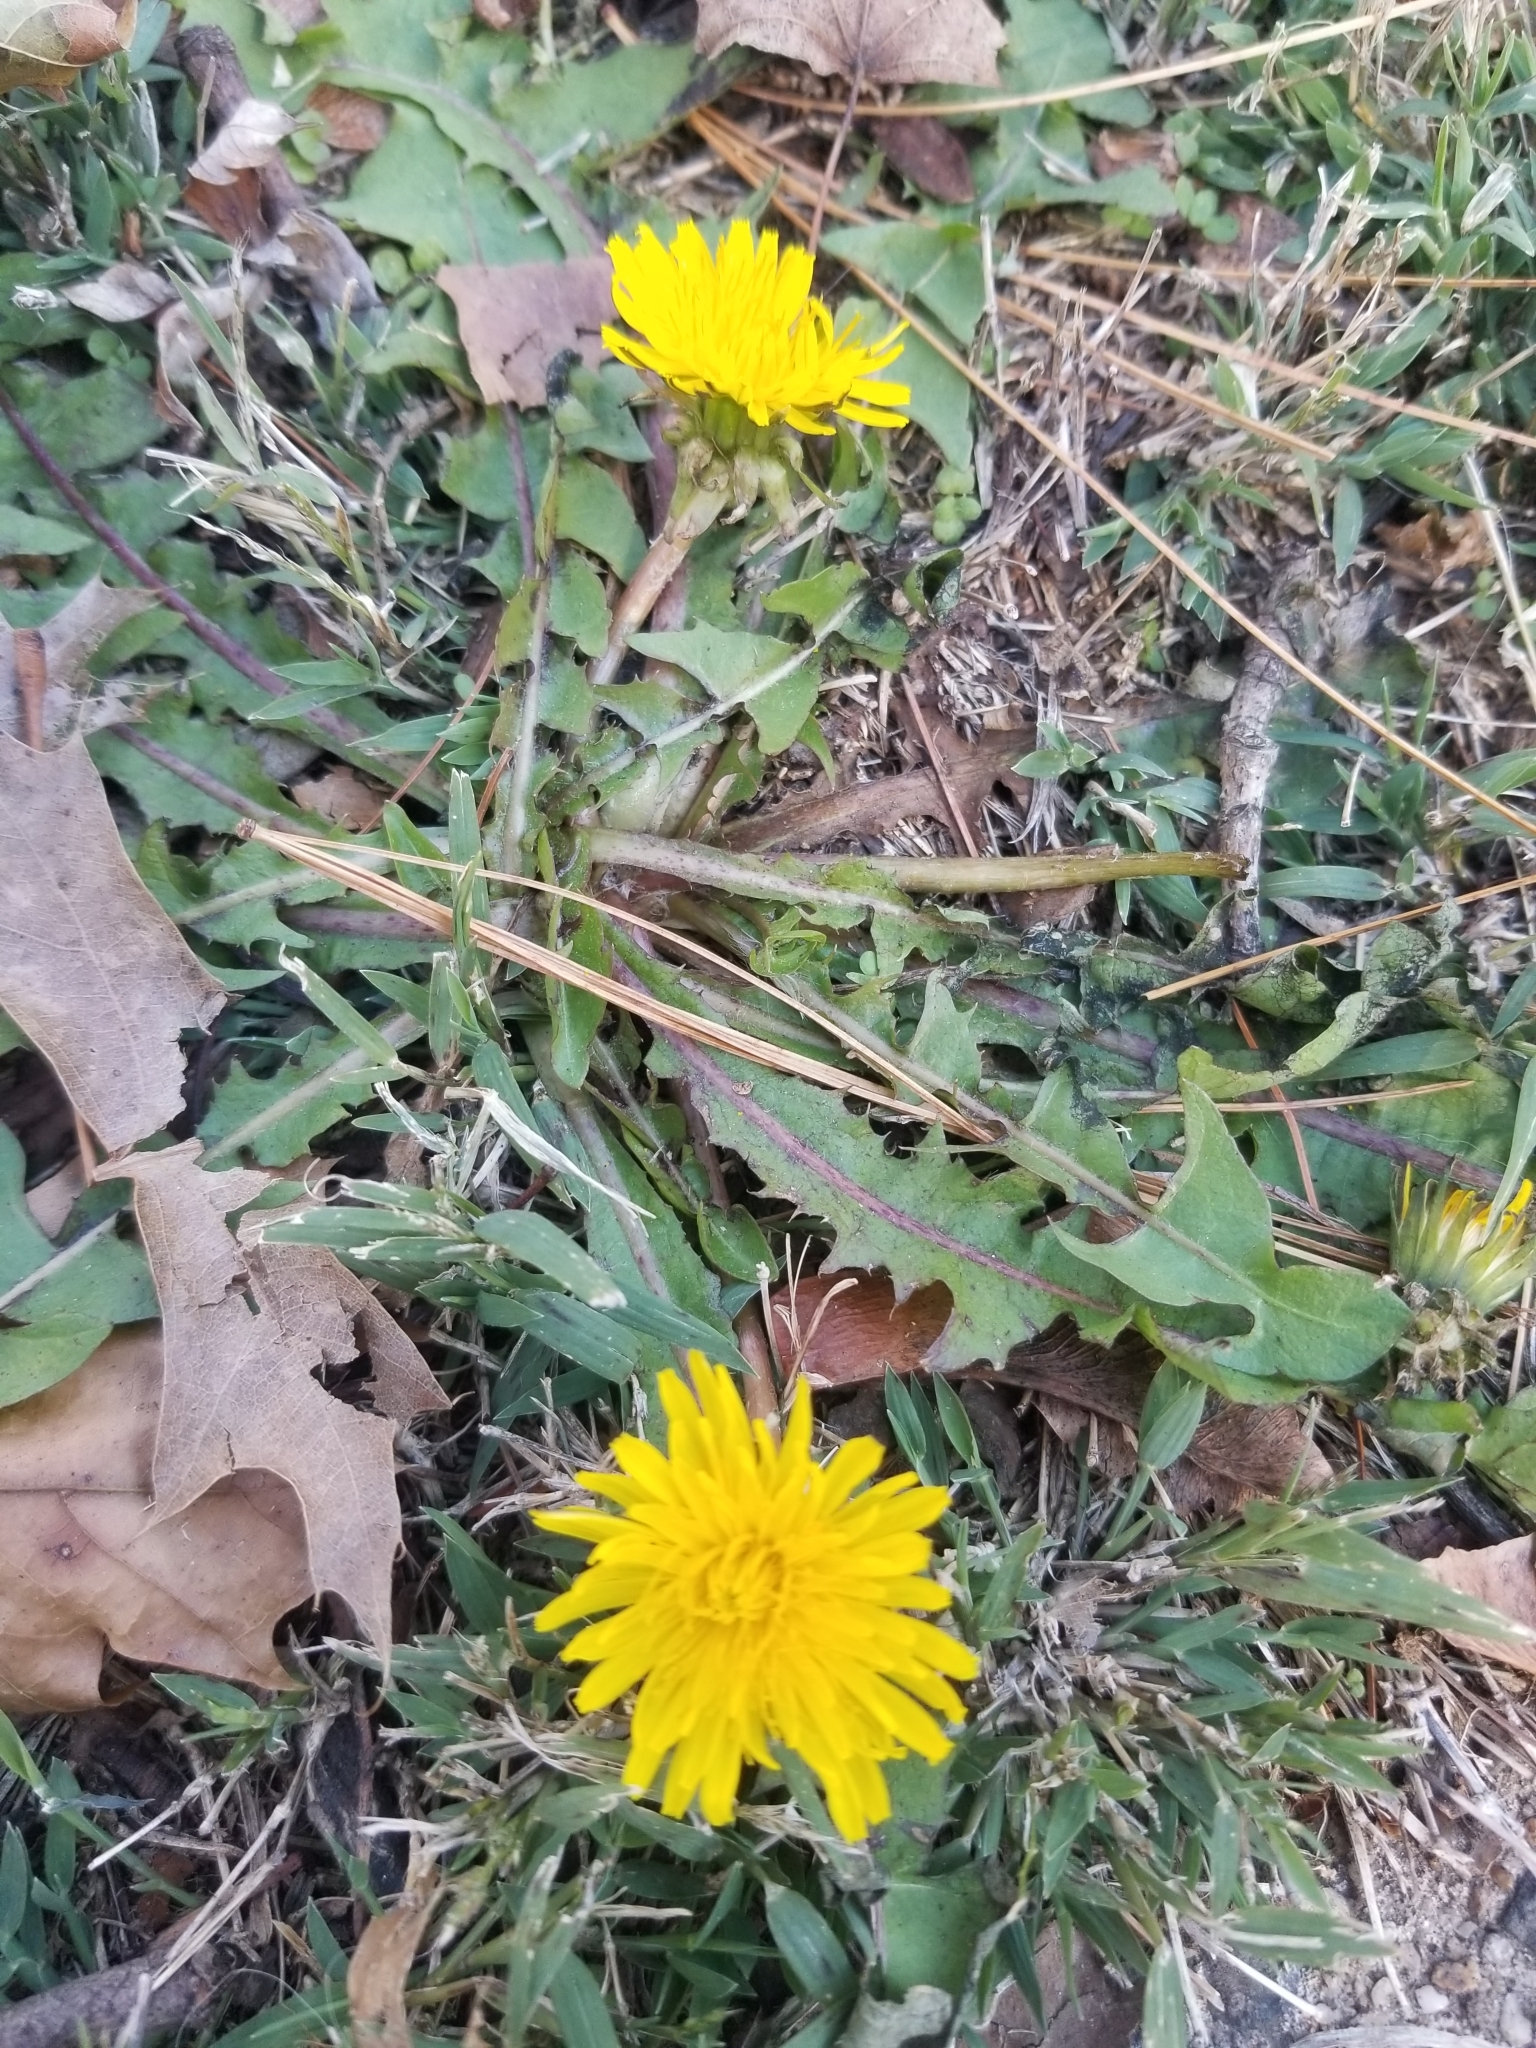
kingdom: Plantae
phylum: Tracheophyta
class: Magnoliopsida
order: Asterales
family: Asteraceae
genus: Taraxacum
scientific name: Taraxacum officinale
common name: Common dandelion
